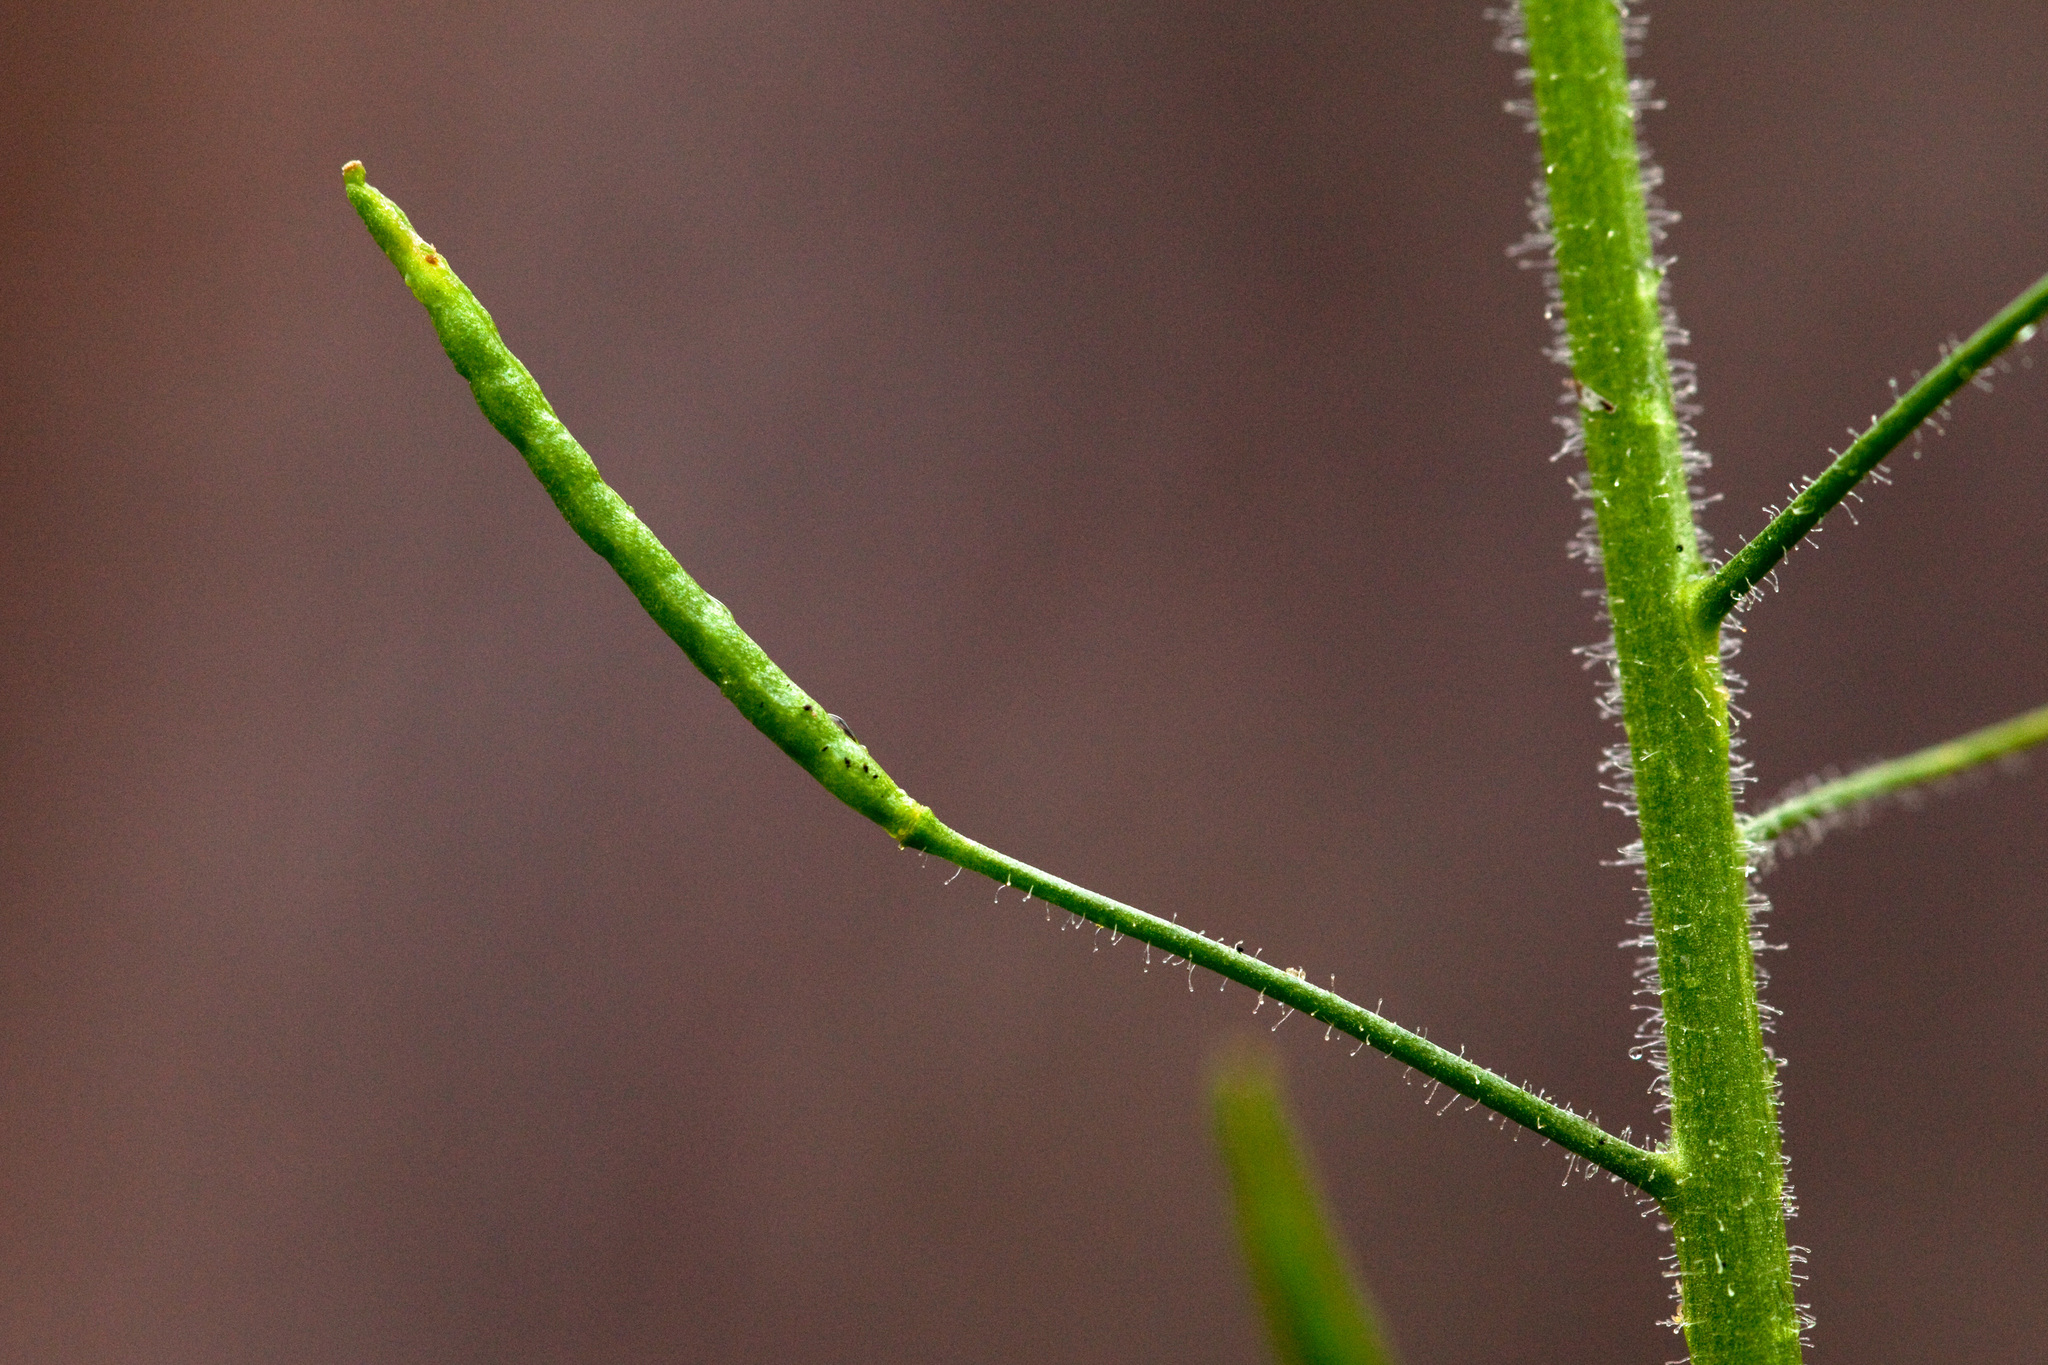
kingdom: Plantae
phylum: Tracheophyta
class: Magnoliopsida
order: Brassicales
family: Brassicaceae
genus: Descurainia
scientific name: Descurainia incisa
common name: Cut-leaved tansy mustard
